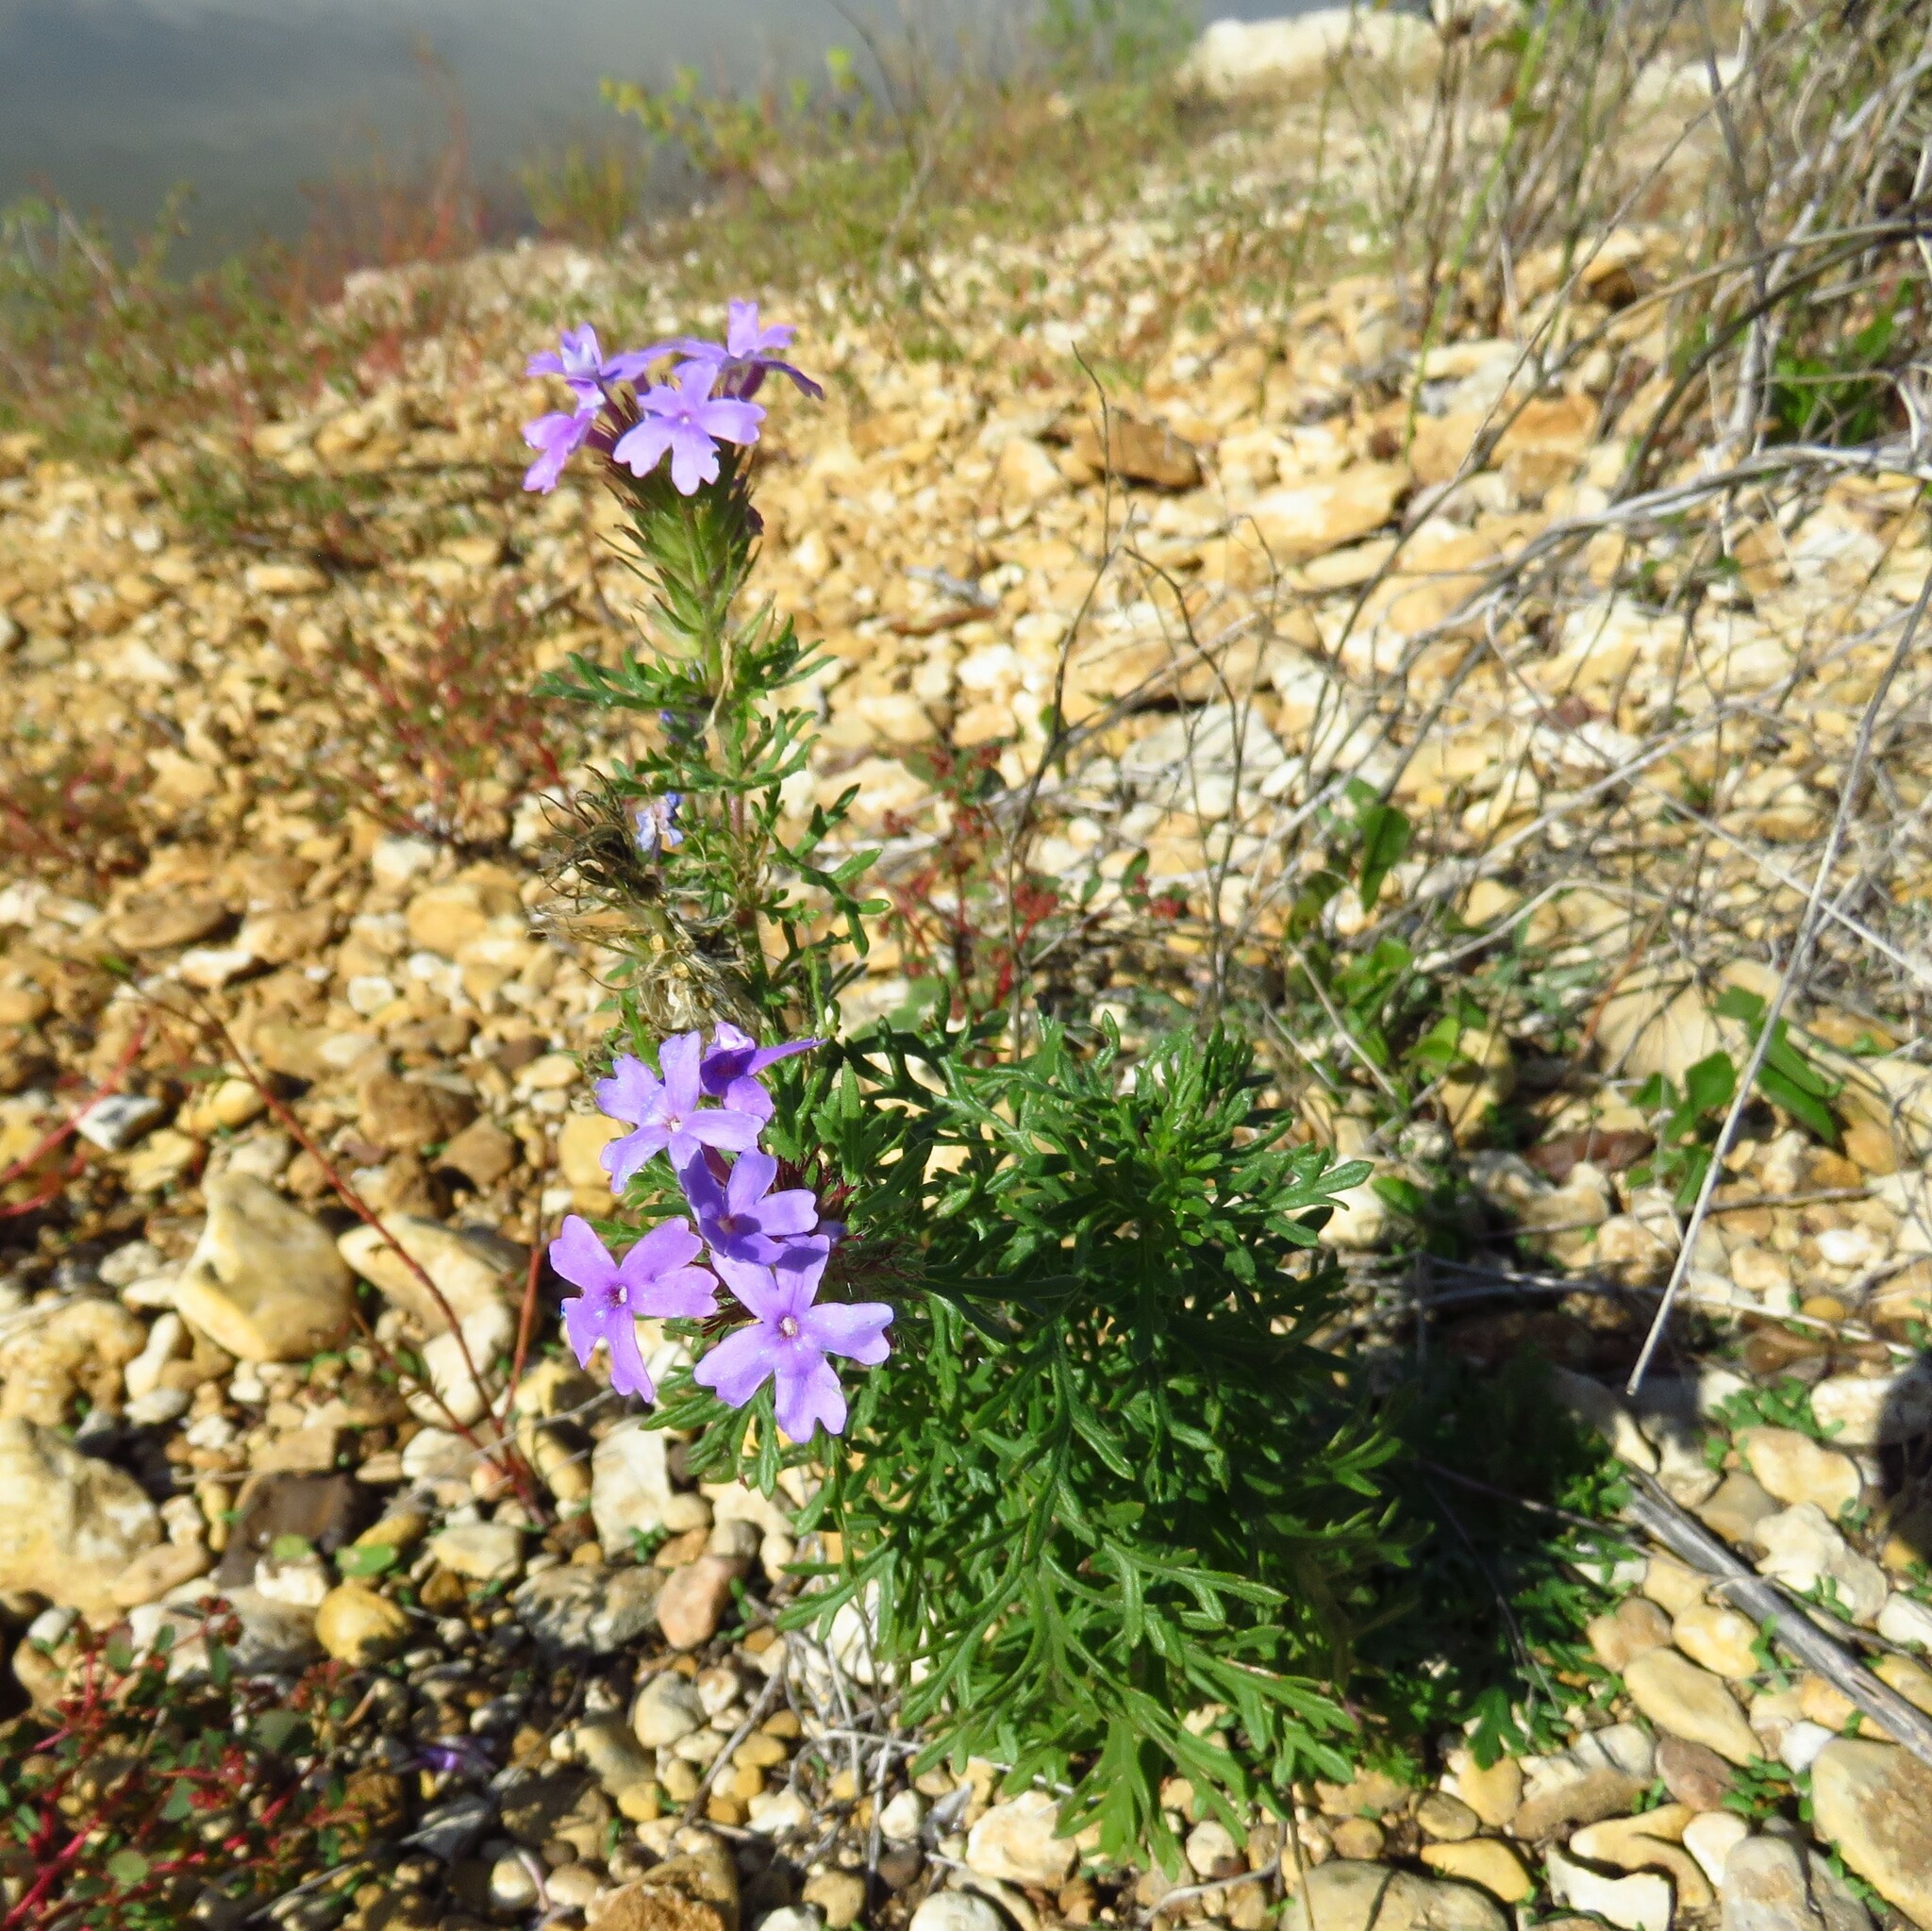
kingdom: Plantae
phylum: Tracheophyta
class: Magnoliopsida
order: Lamiales
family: Verbenaceae
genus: Verbena
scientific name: Verbena bipinnatifida
